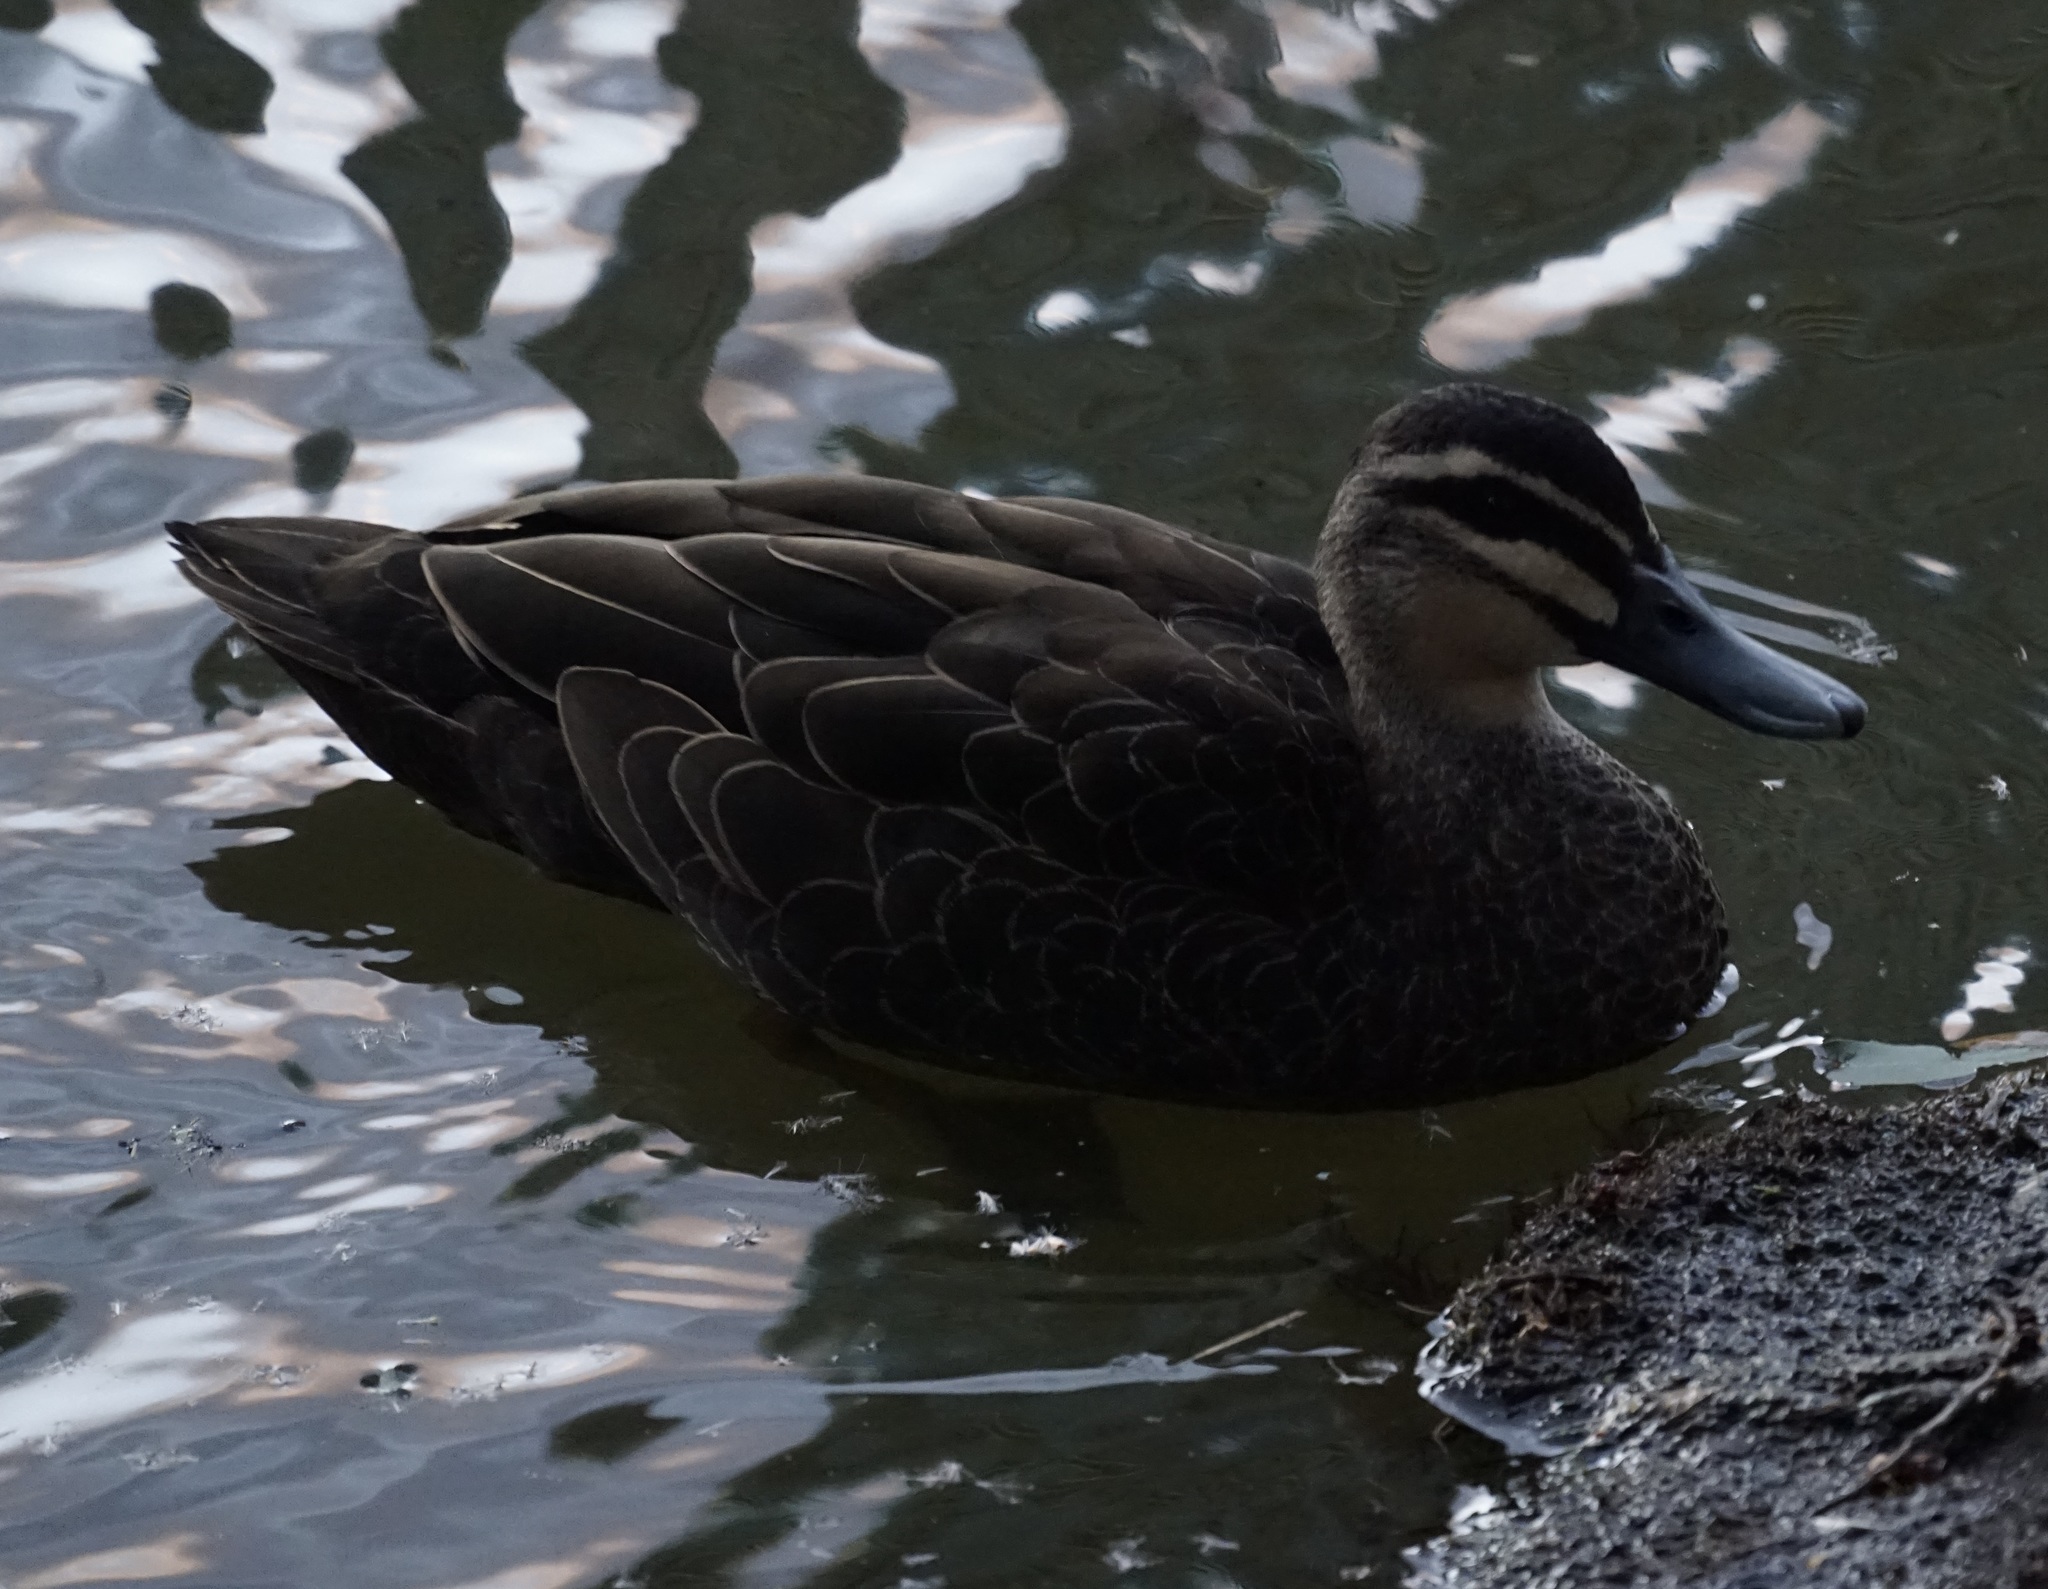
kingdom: Animalia
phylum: Chordata
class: Aves
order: Anseriformes
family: Anatidae
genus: Anas
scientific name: Anas superciliosa
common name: Pacific black duck
